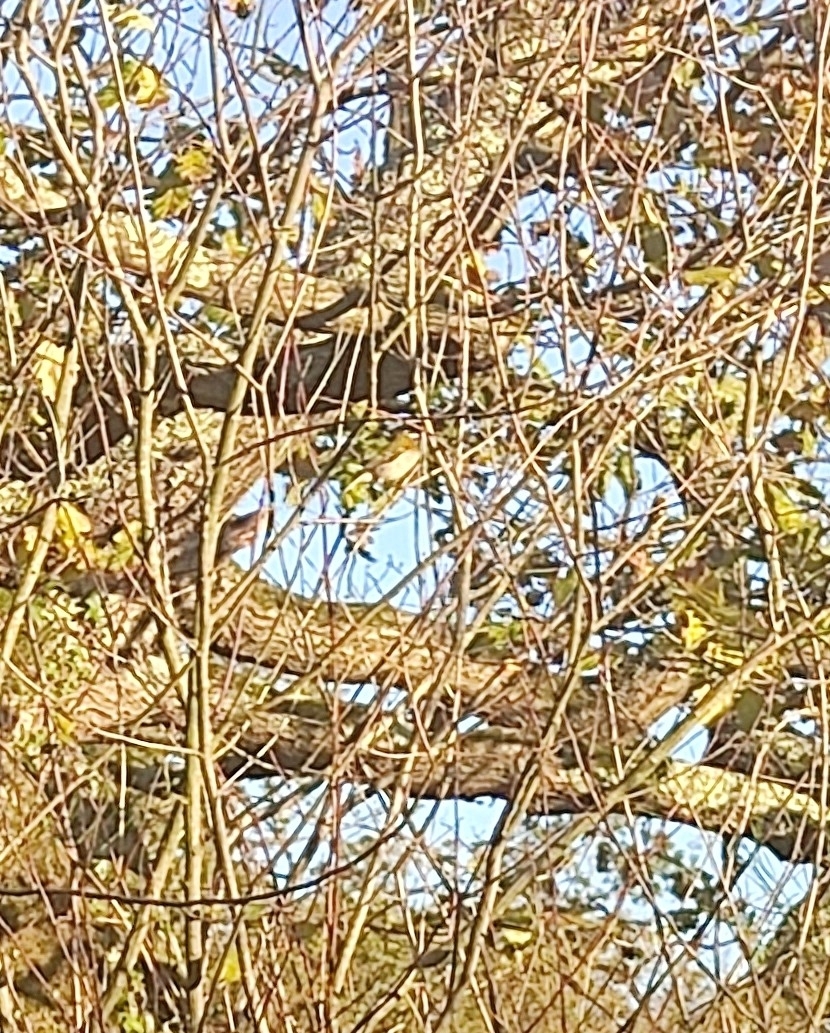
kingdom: Animalia
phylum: Chordata
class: Aves
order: Passeriformes
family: Regulidae
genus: Regulus
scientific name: Regulus ignicapilla
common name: Firecrest
